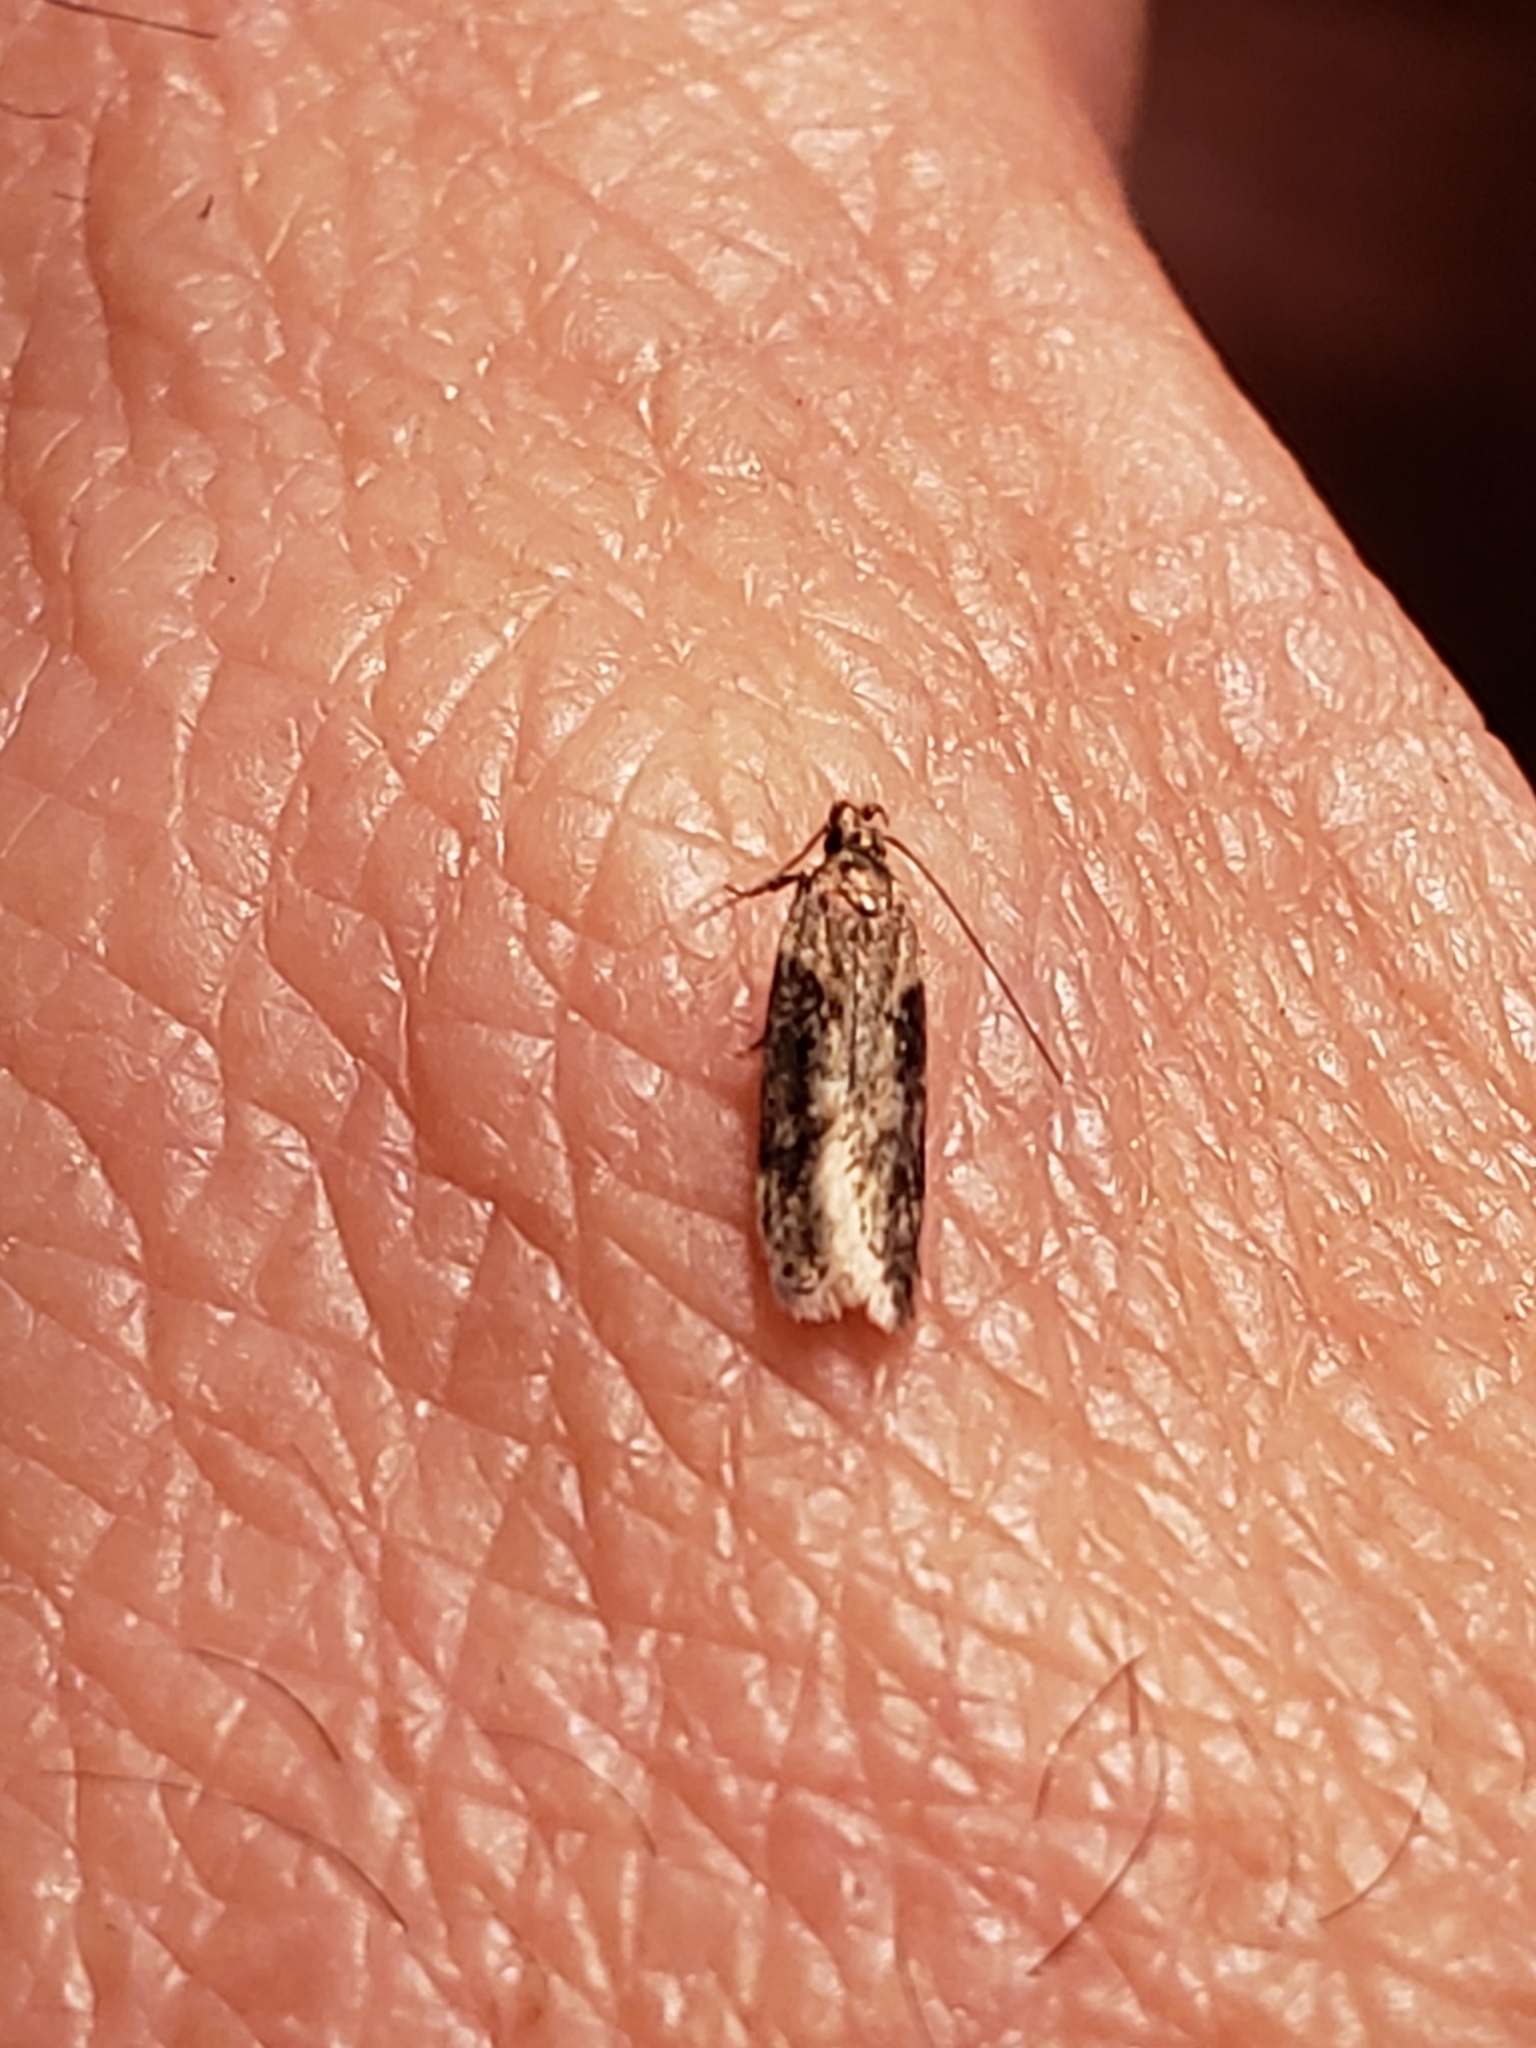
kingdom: Animalia
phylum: Arthropoda
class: Insecta
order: Lepidoptera
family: Gelechiidae
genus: Chionodes
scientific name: Chionodes mediofuscella
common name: Black-smudged chionodes moth
